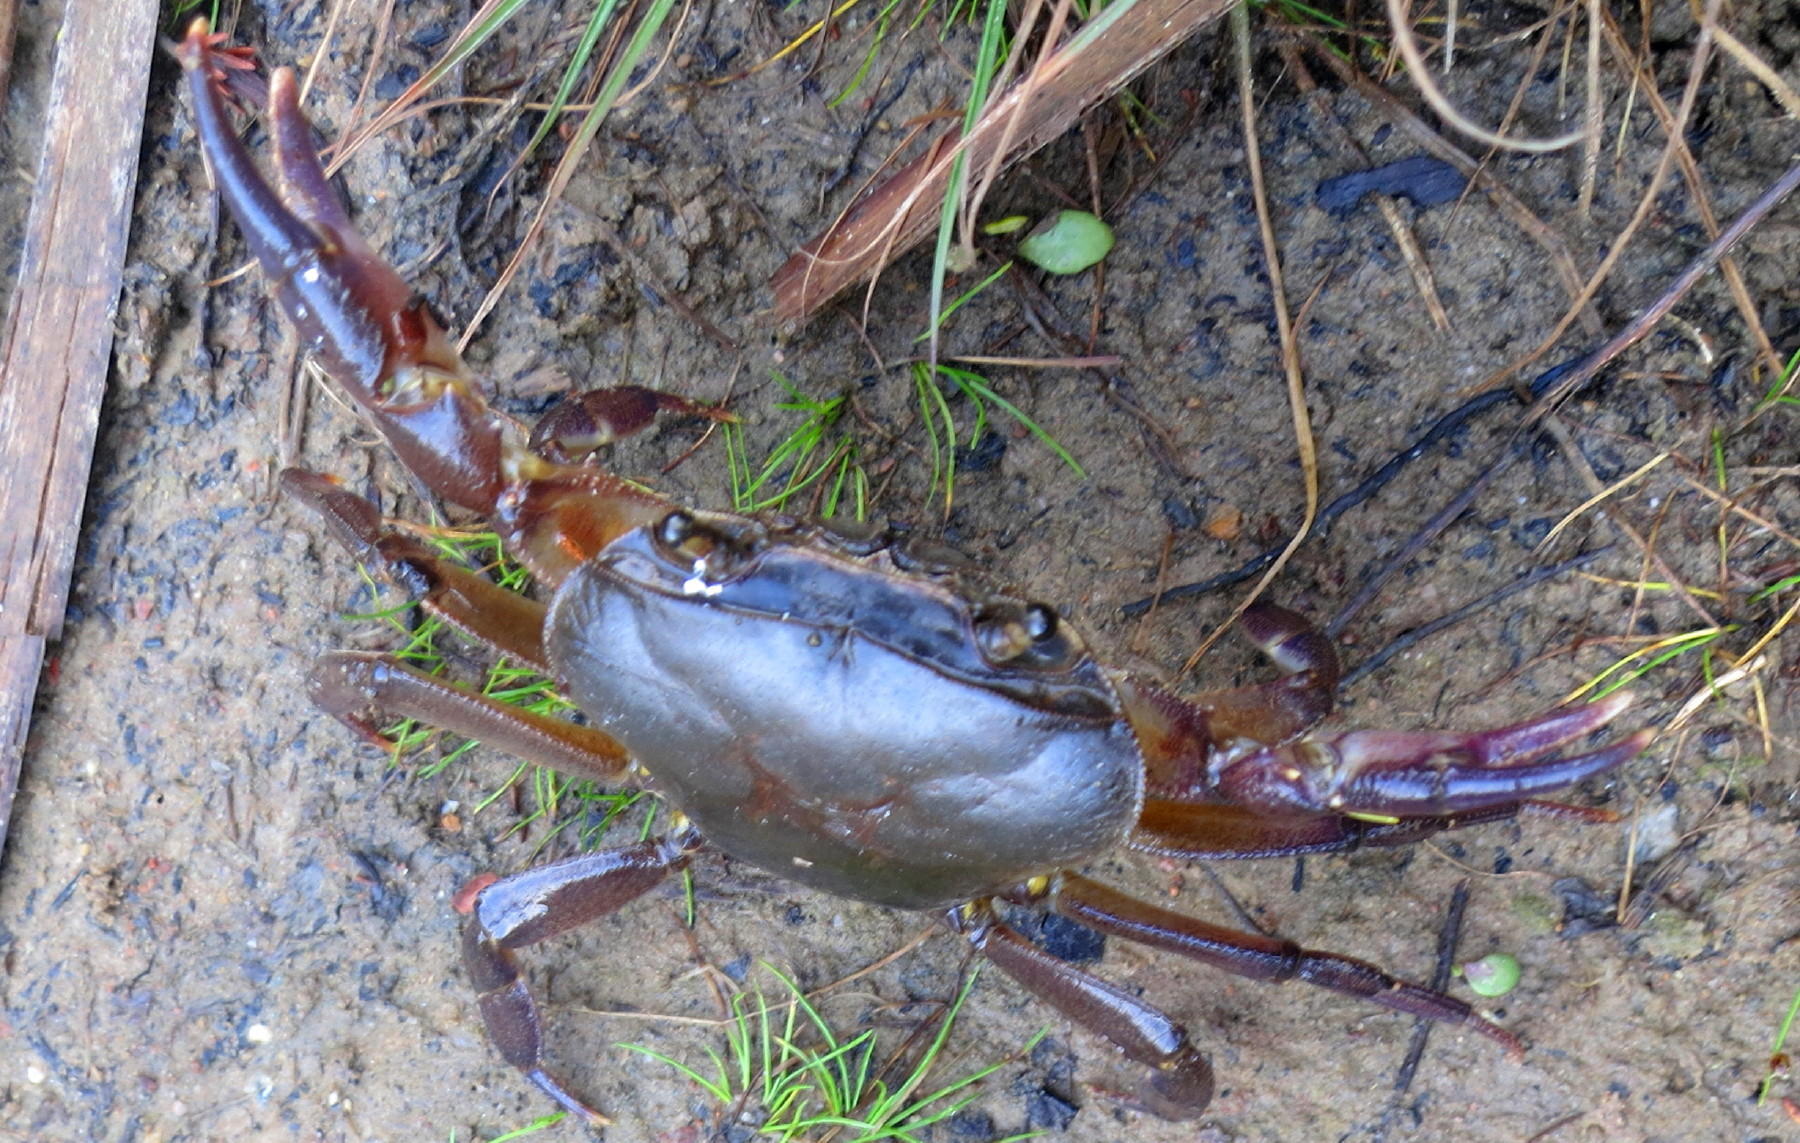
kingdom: Animalia
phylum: Arthropoda
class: Malacostraca
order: Decapoda
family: Potamonautidae
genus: Potamonautes
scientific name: Potamonautes barbarai
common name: Barbara's crab
